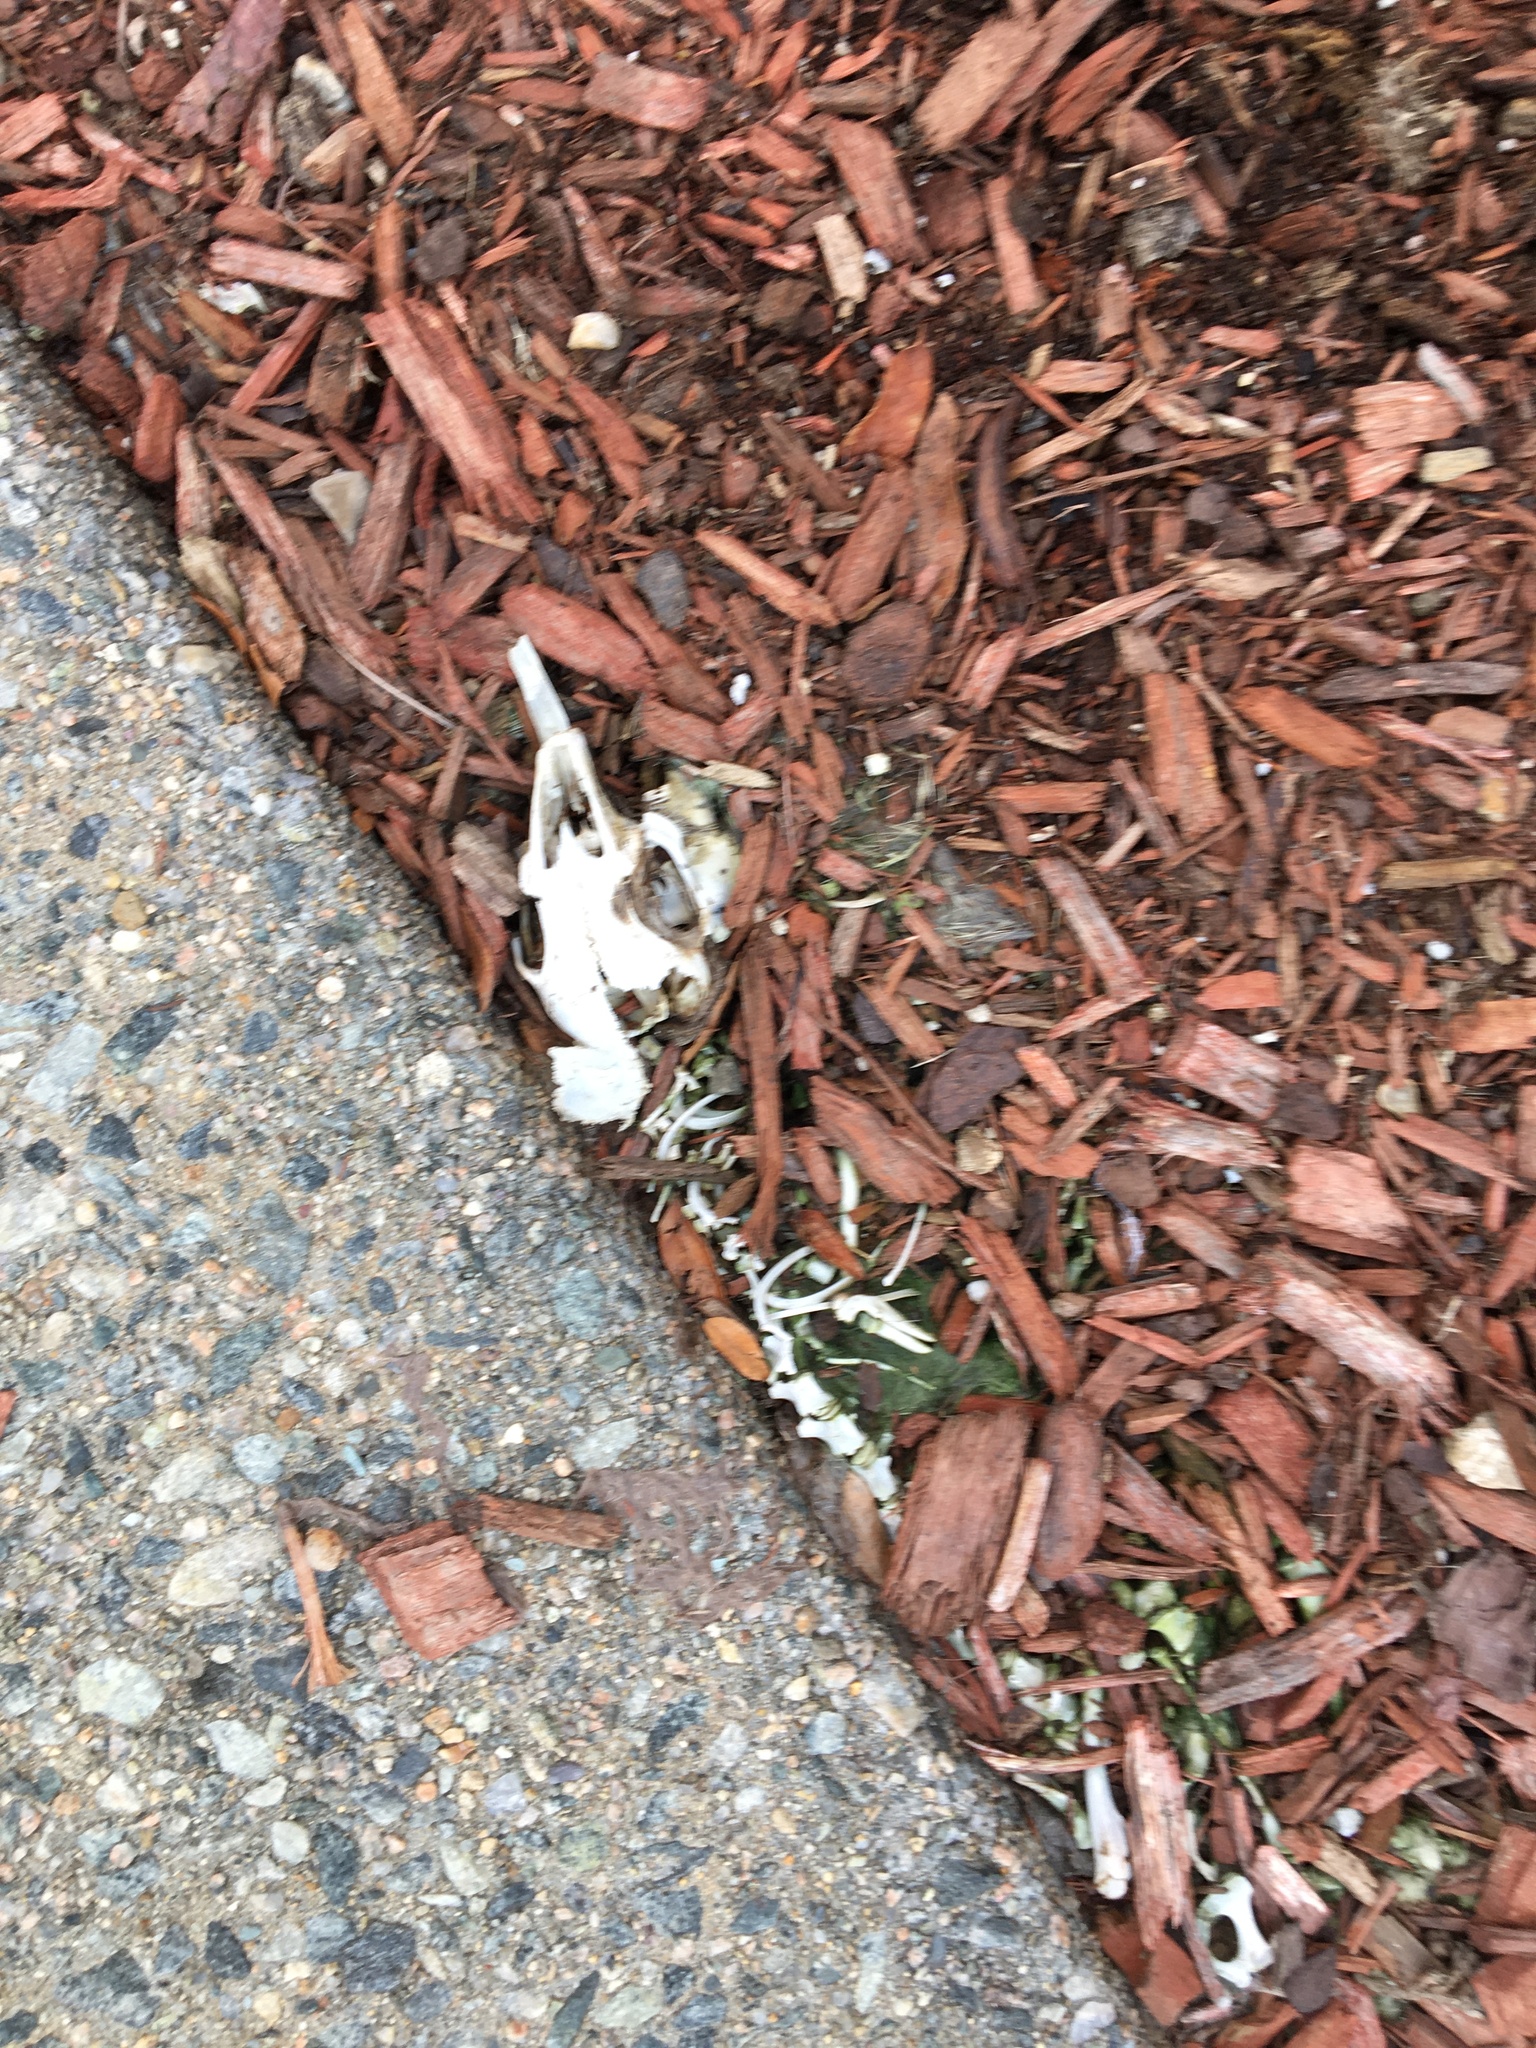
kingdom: Animalia
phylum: Chordata
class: Mammalia
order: Lagomorpha
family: Leporidae
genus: Sylvilagus
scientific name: Sylvilagus floridanus
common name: Eastern cottontail
